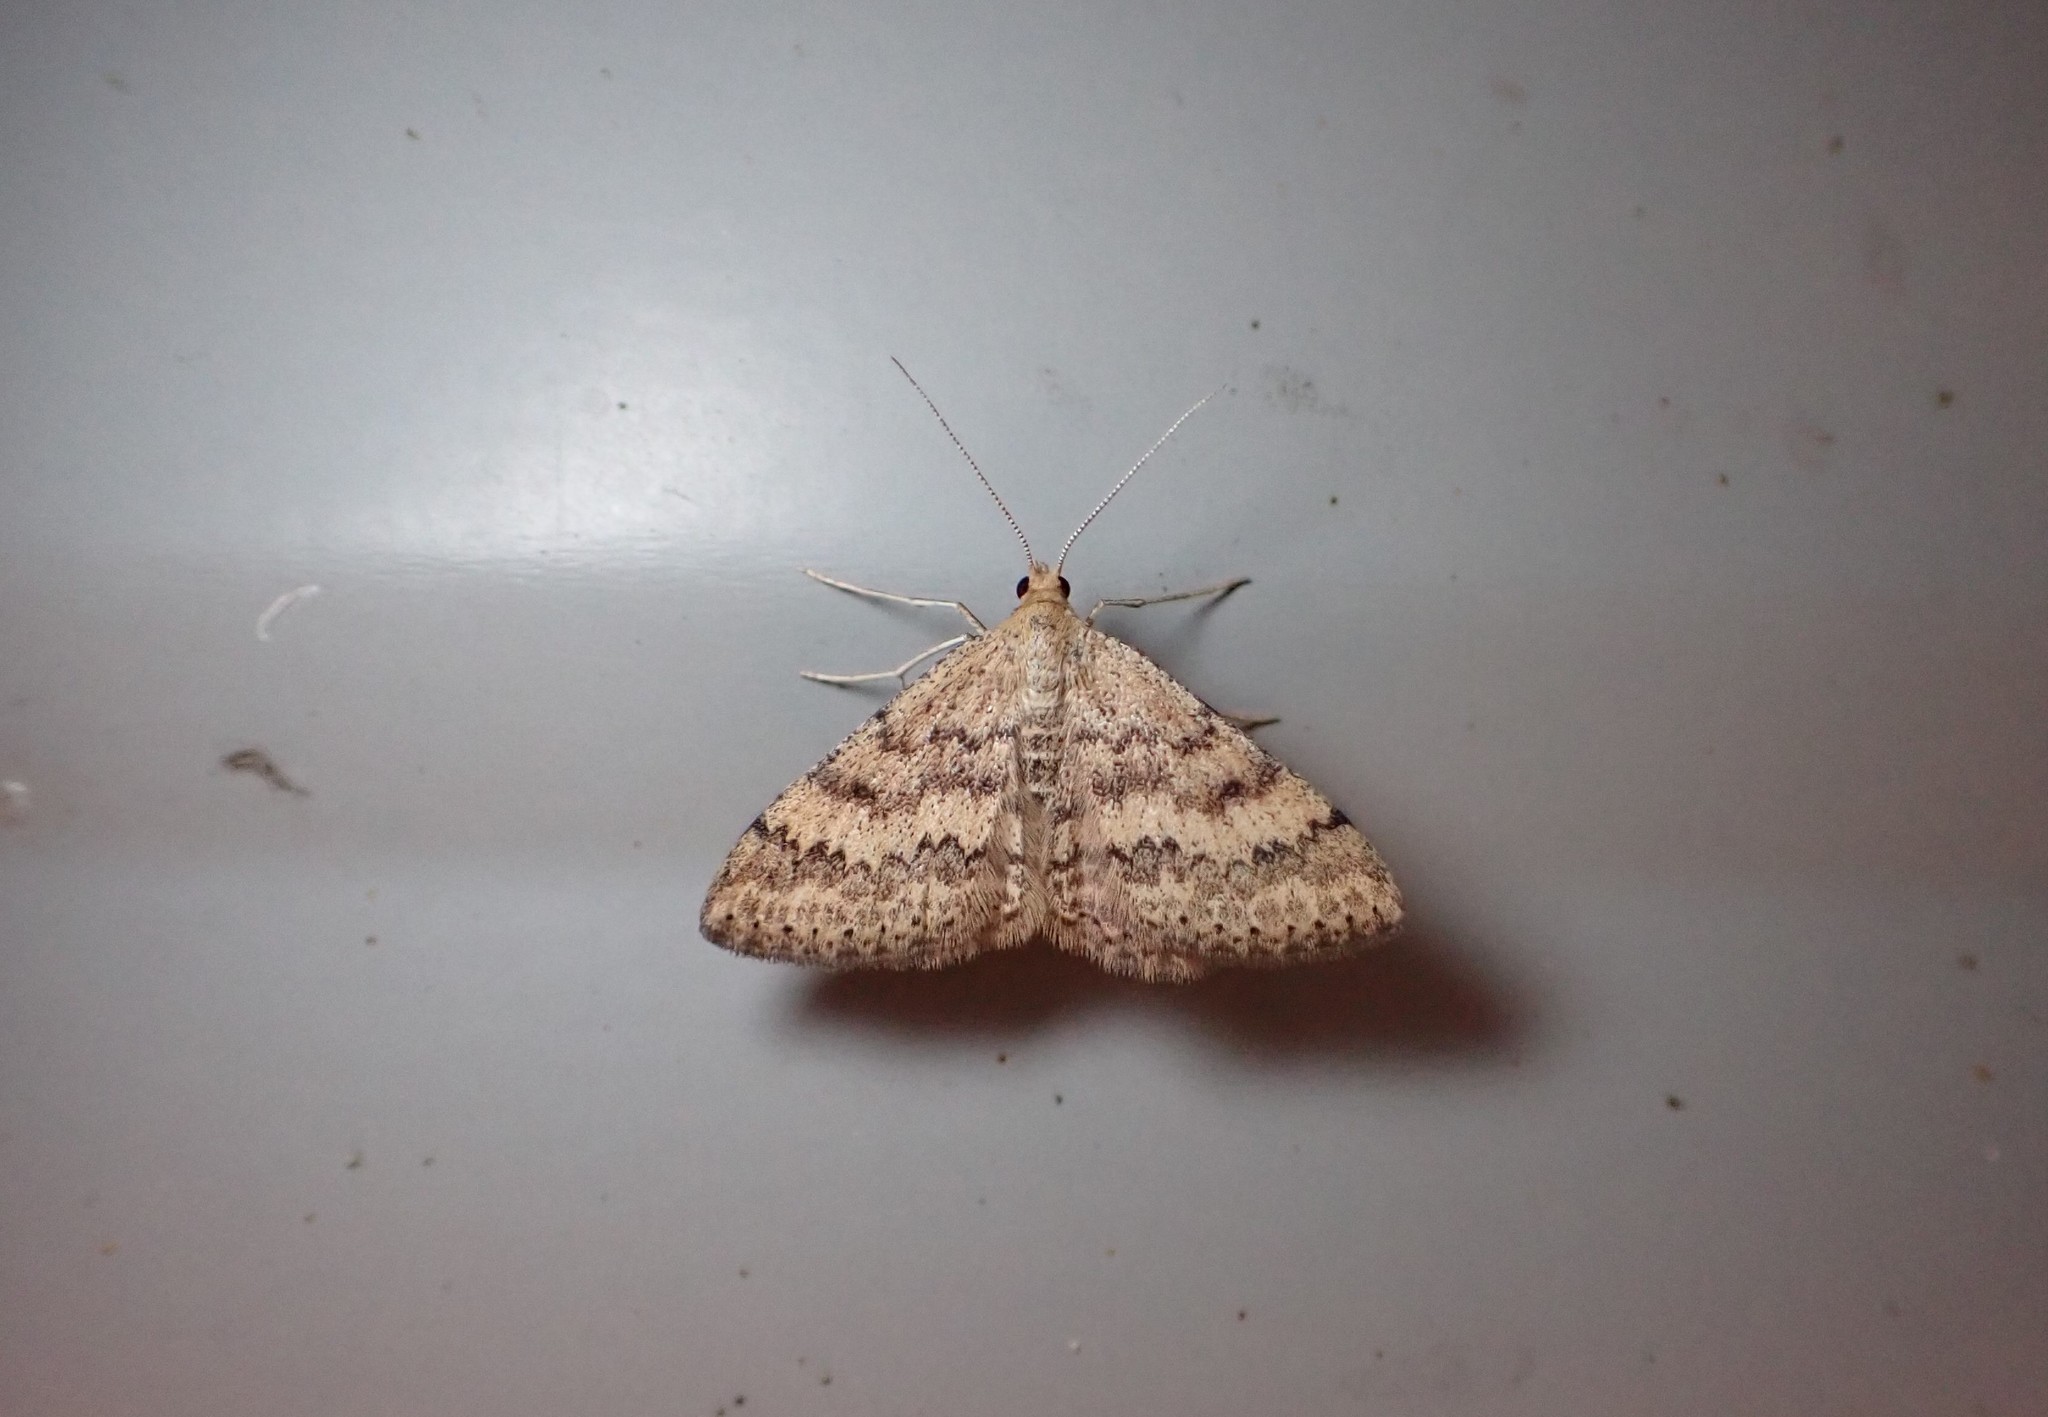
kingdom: Animalia
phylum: Arthropoda
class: Insecta
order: Lepidoptera
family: Geometridae
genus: Scopula
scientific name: Scopula rubraria
